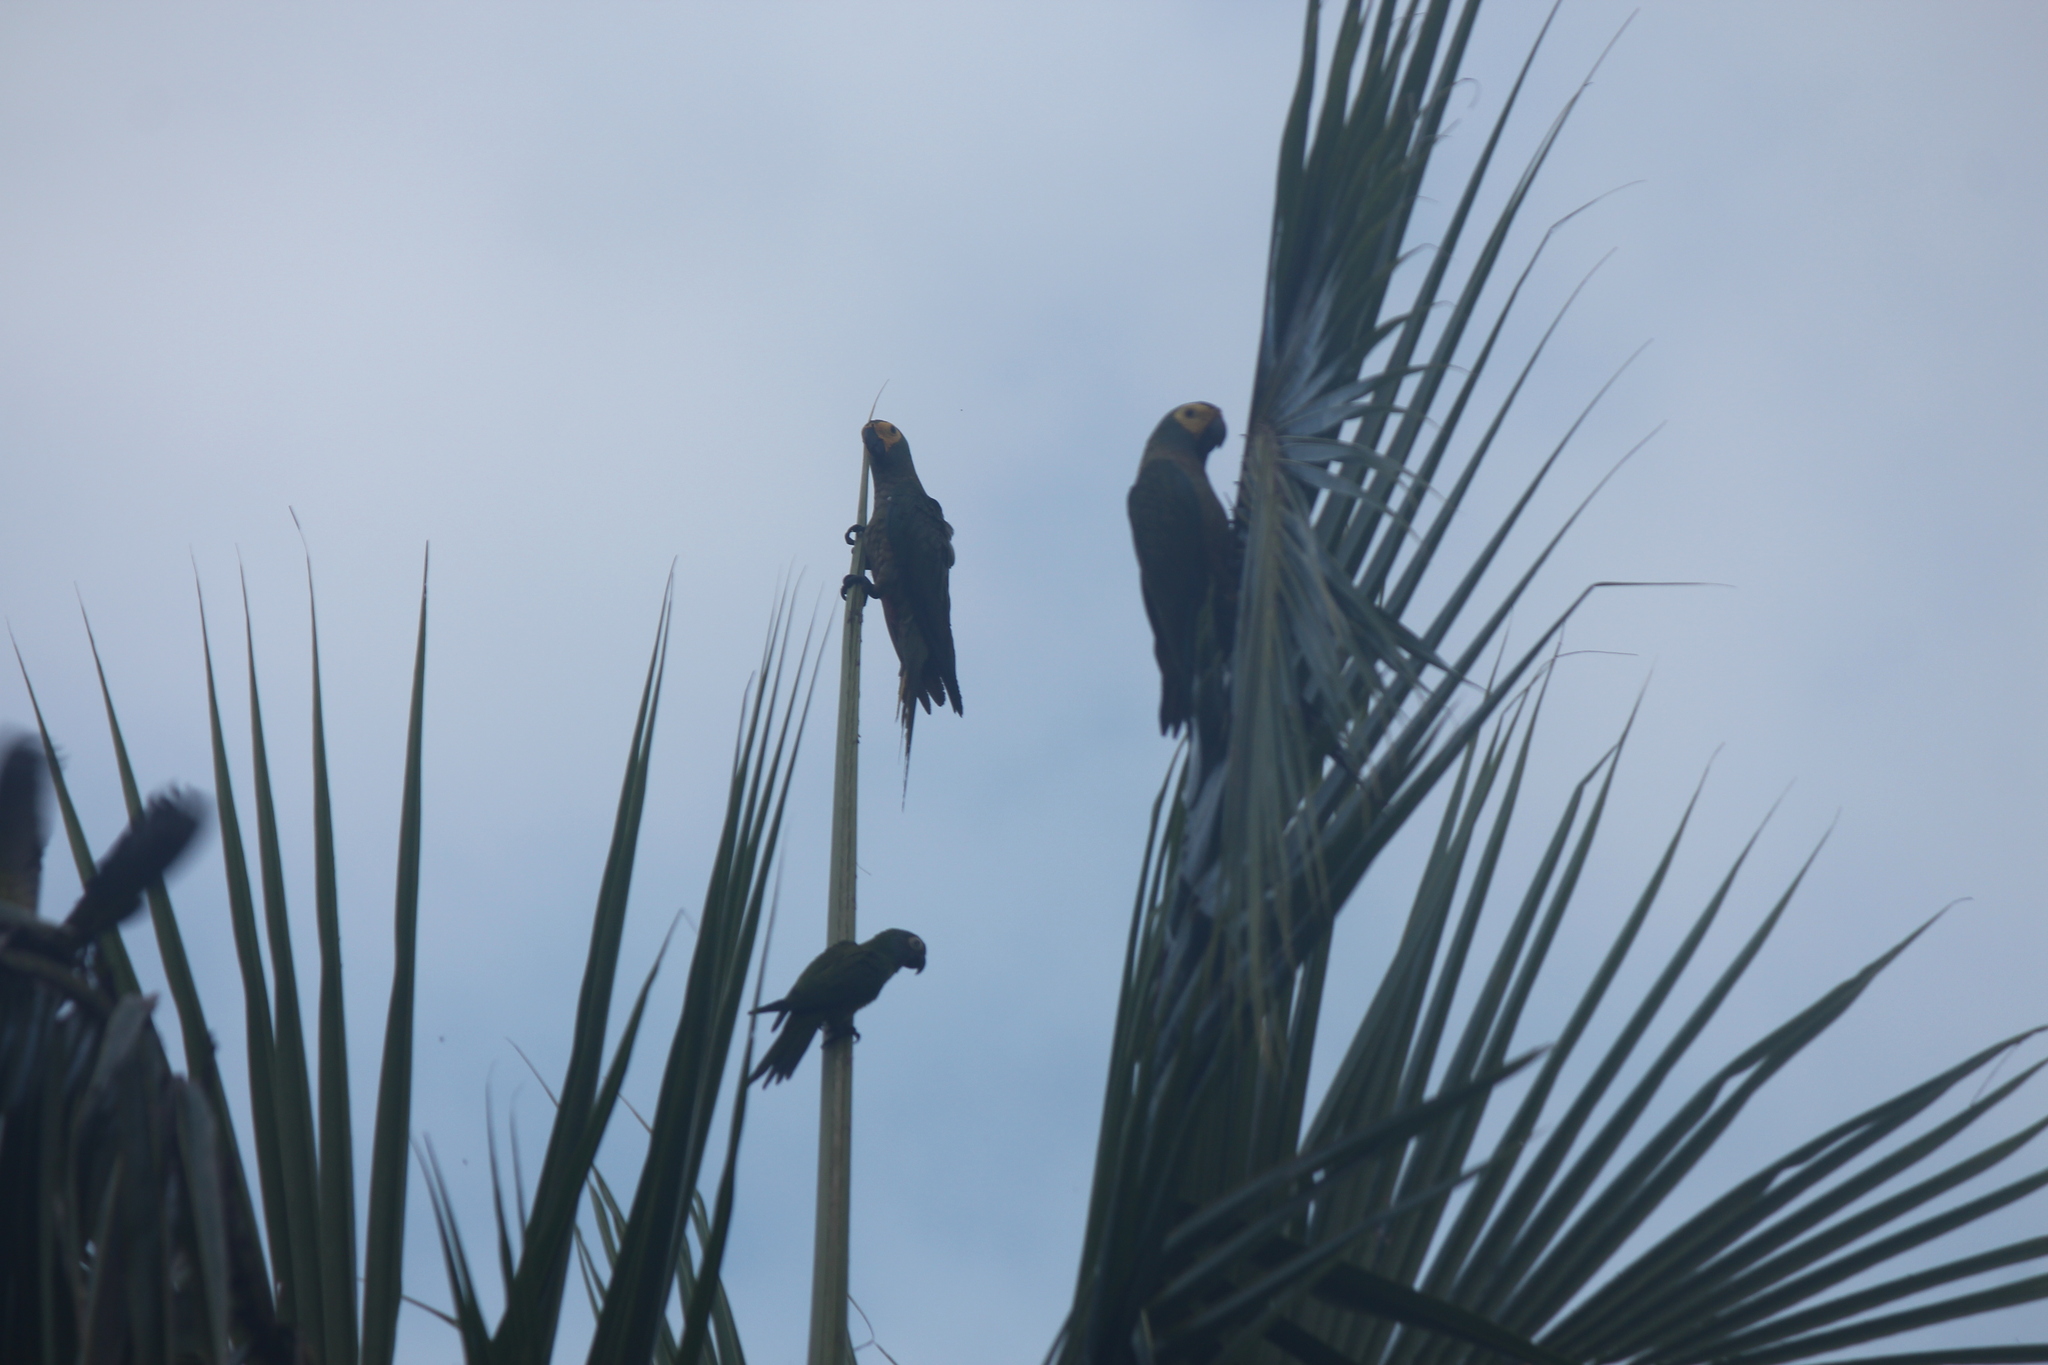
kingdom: Animalia
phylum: Chordata
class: Aves
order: Psittaciformes
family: Psittacidae
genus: Orthopsittaca
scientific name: Orthopsittaca manilata
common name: Red-bellied macaw
